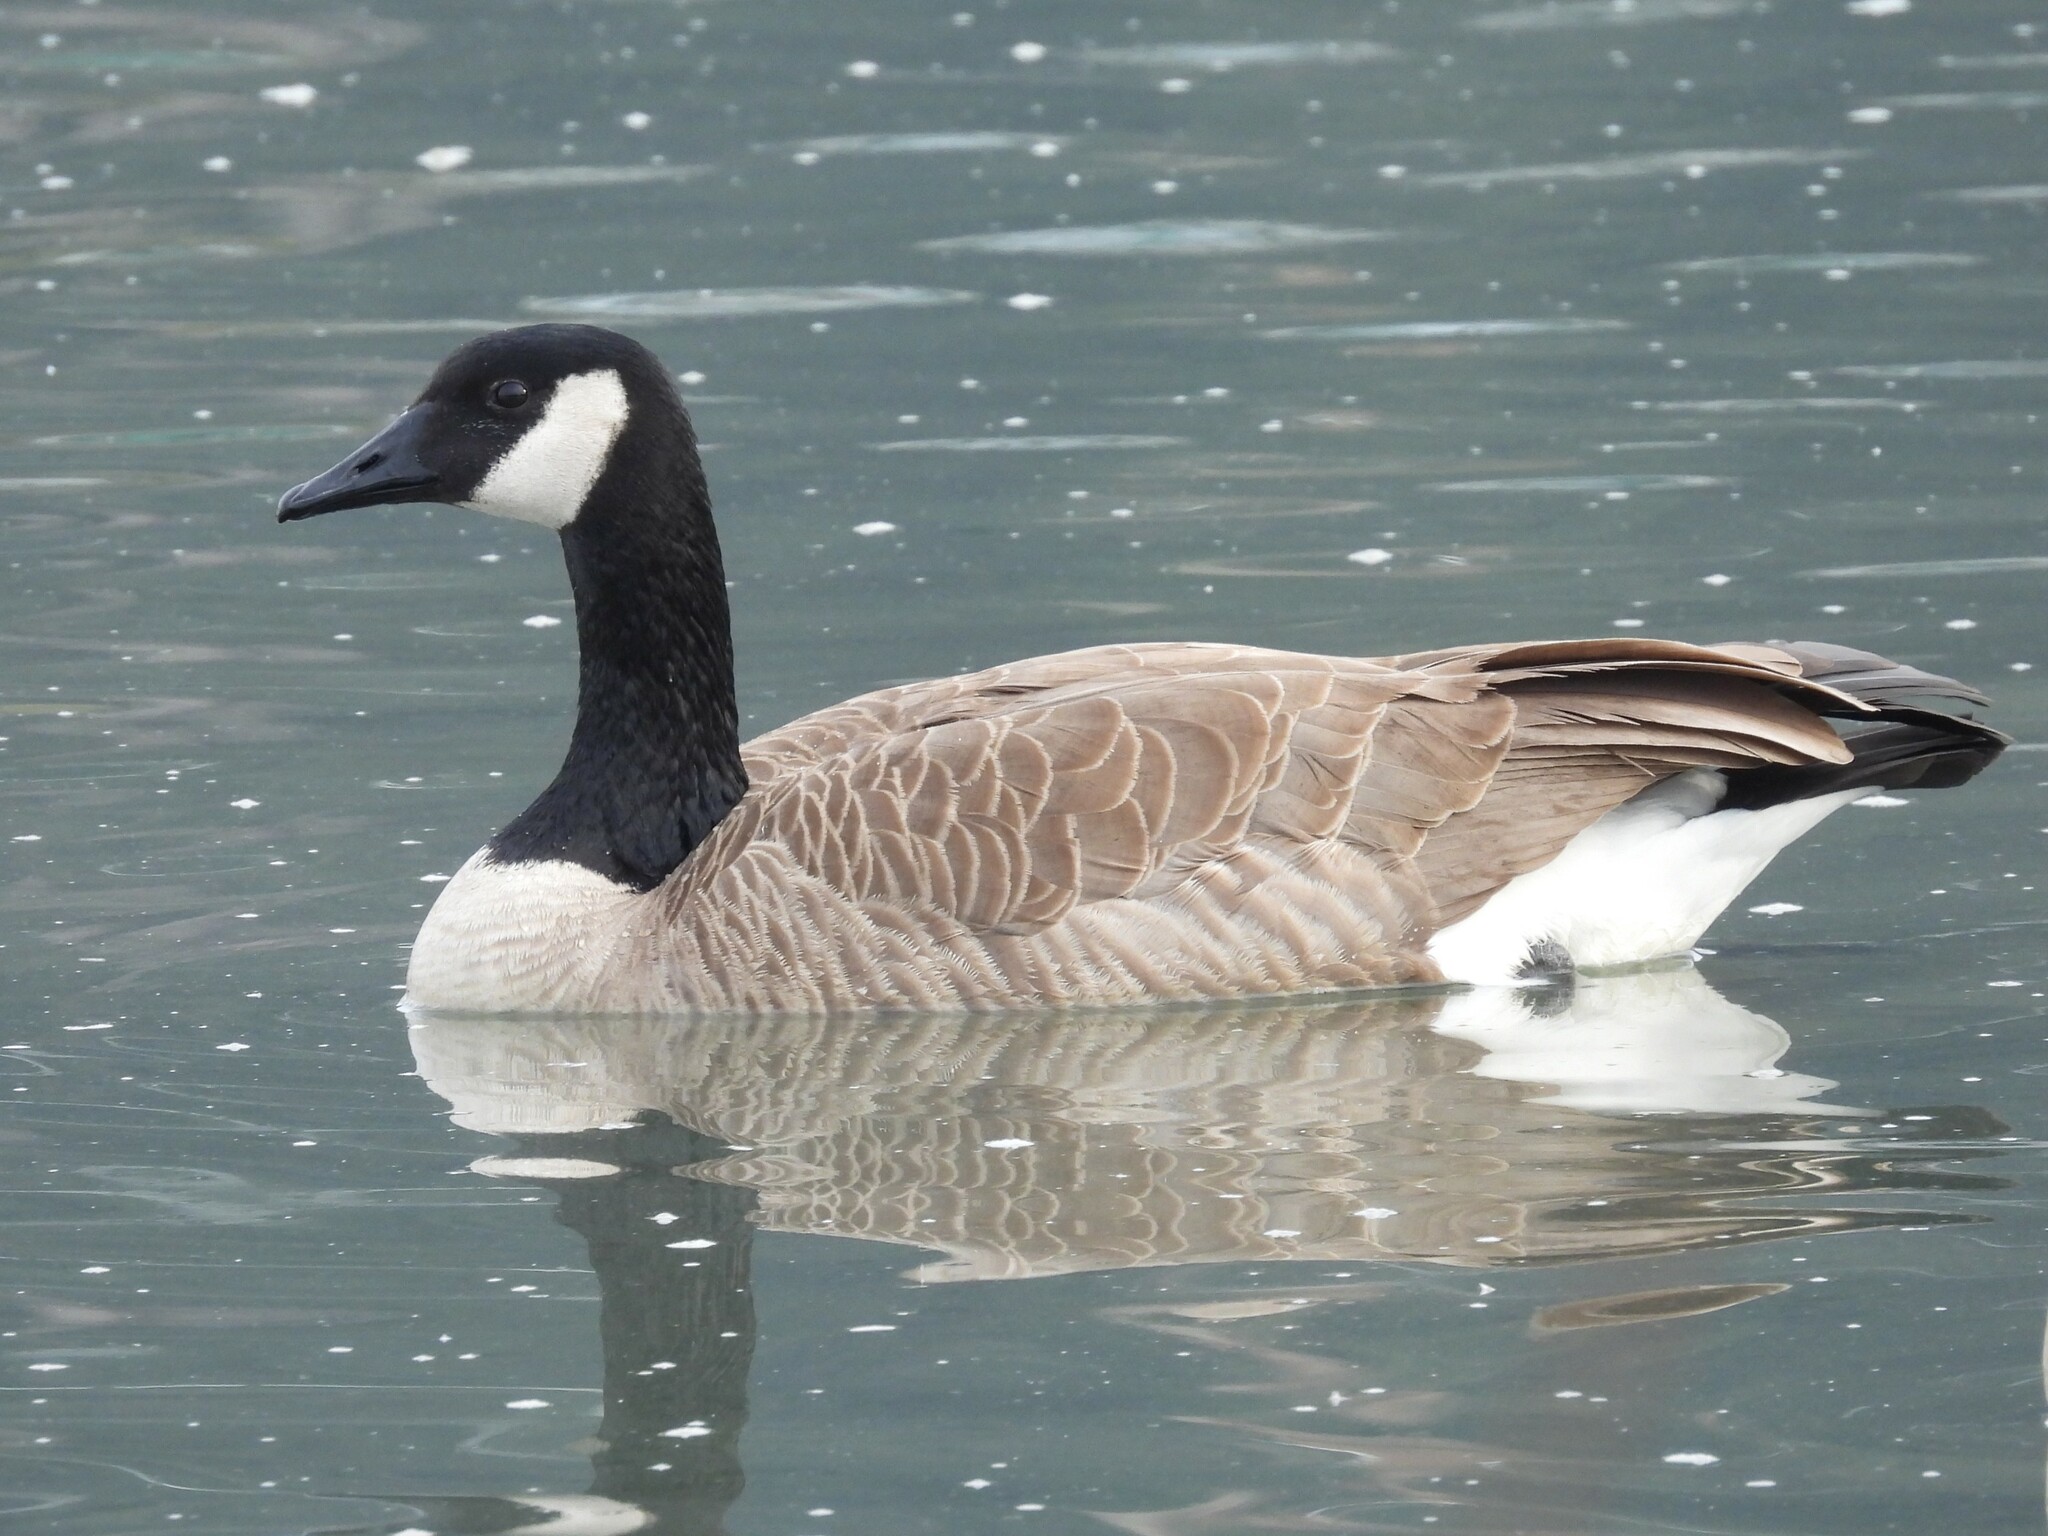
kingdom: Animalia
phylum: Chordata
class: Aves
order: Anseriformes
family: Anatidae
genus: Branta
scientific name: Branta canadensis
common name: Canada goose
